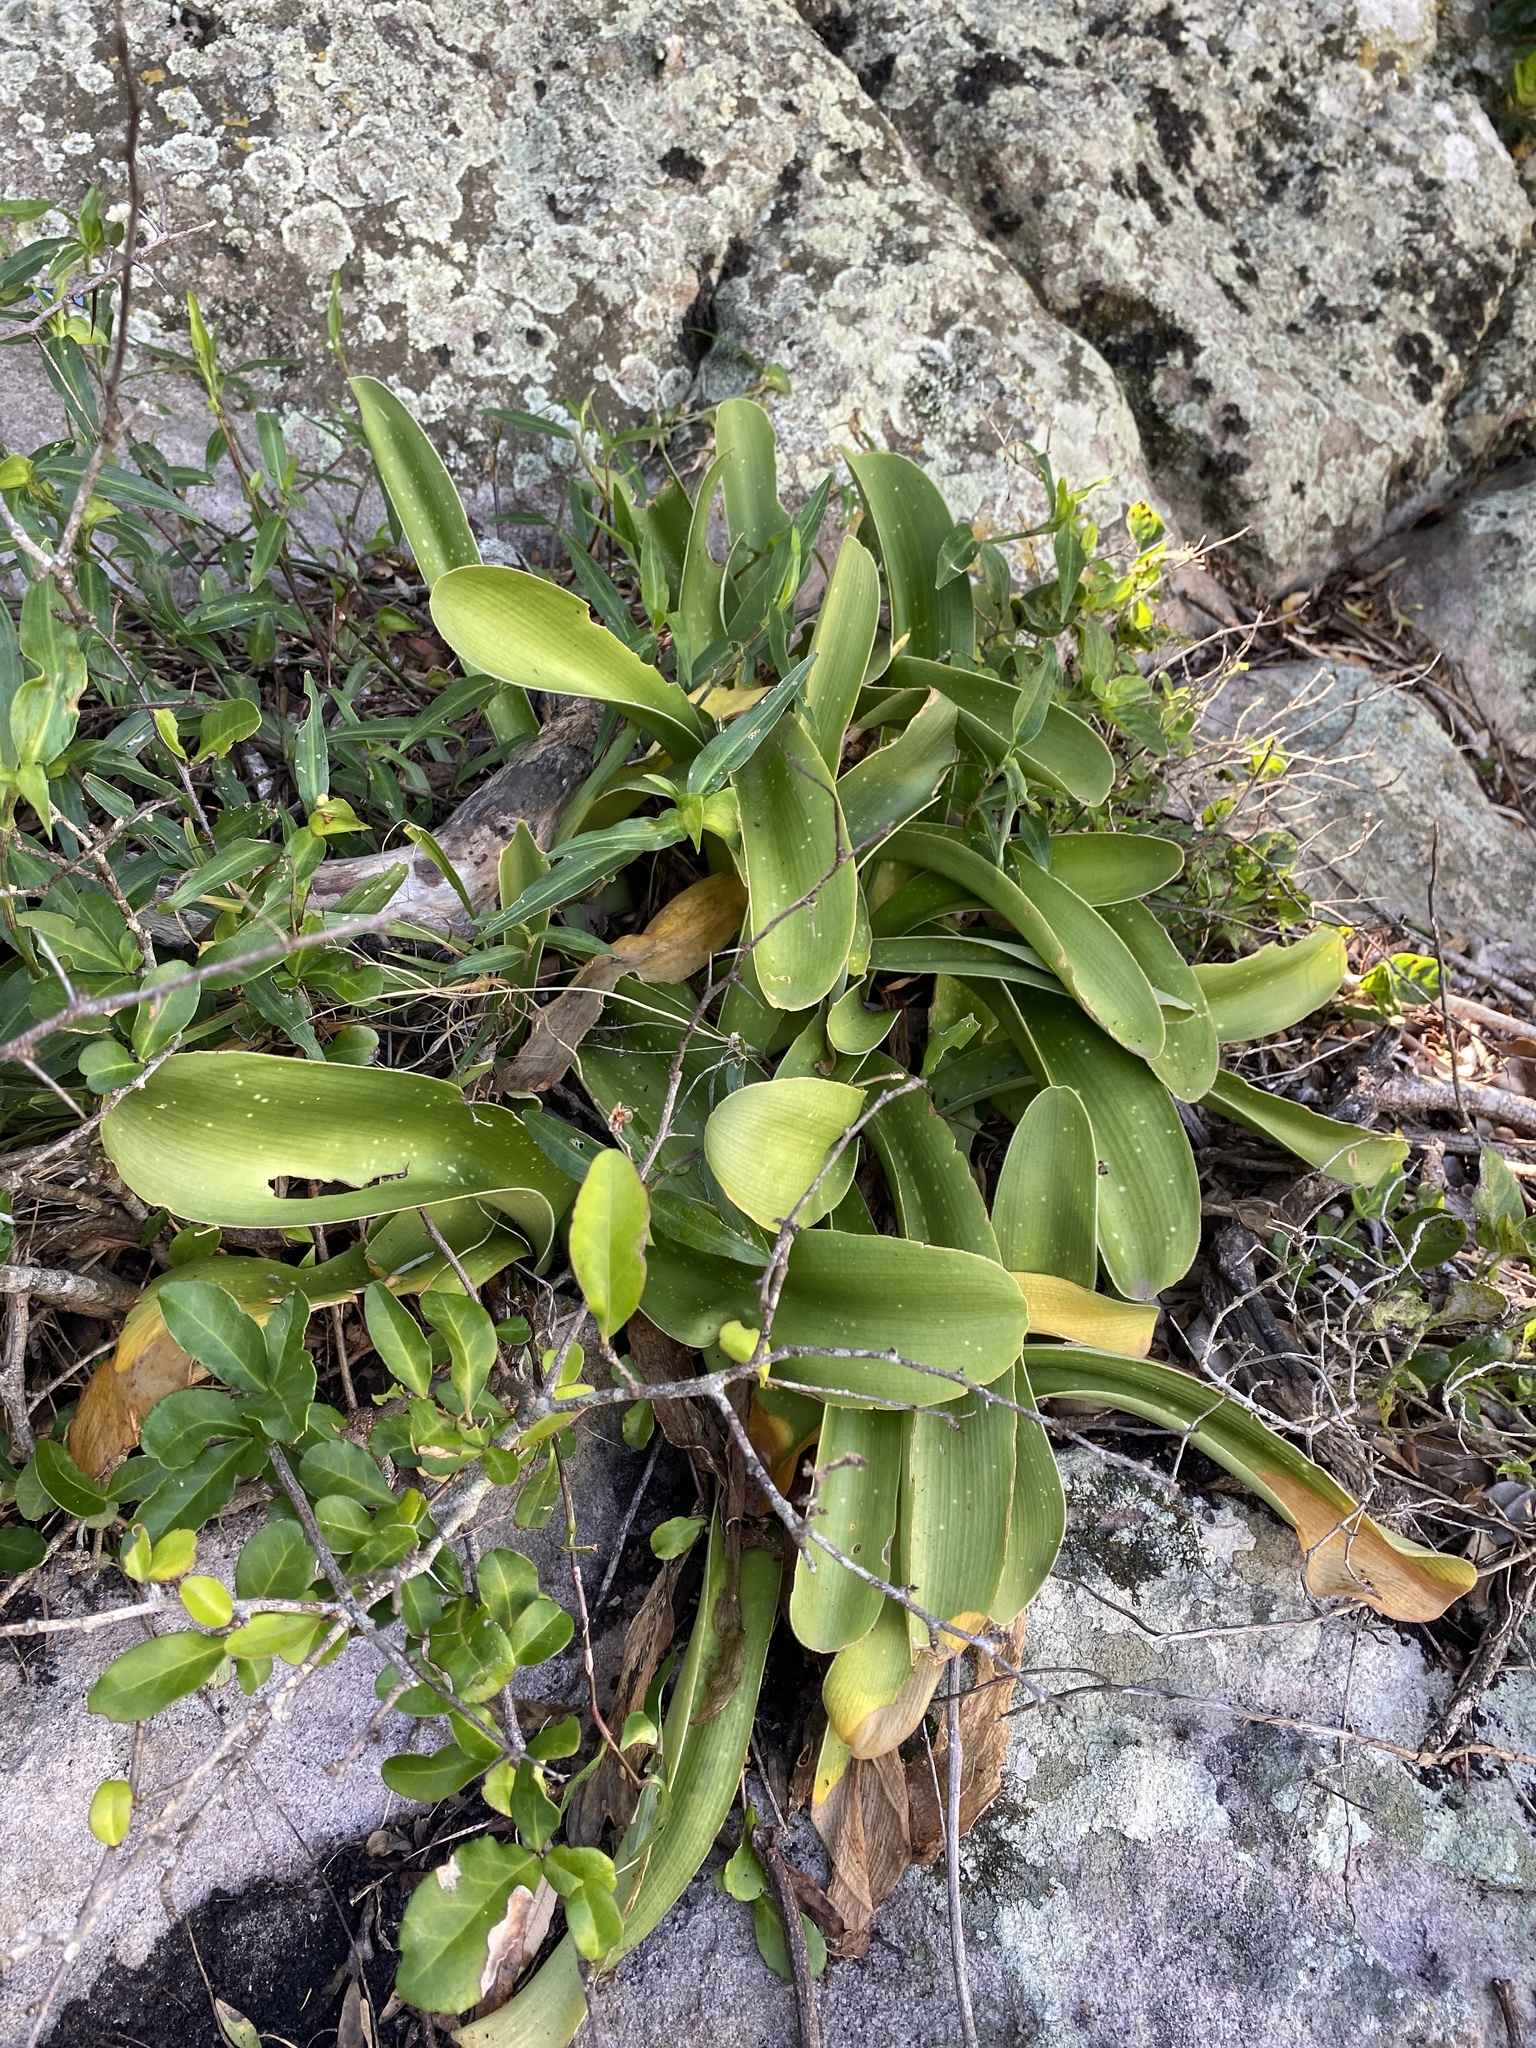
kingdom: Plantae
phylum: Tracheophyta
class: Liliopsida
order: Asparagales
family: Amaryllidaceae
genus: Haemanthus
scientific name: Haemanthus albiflos
